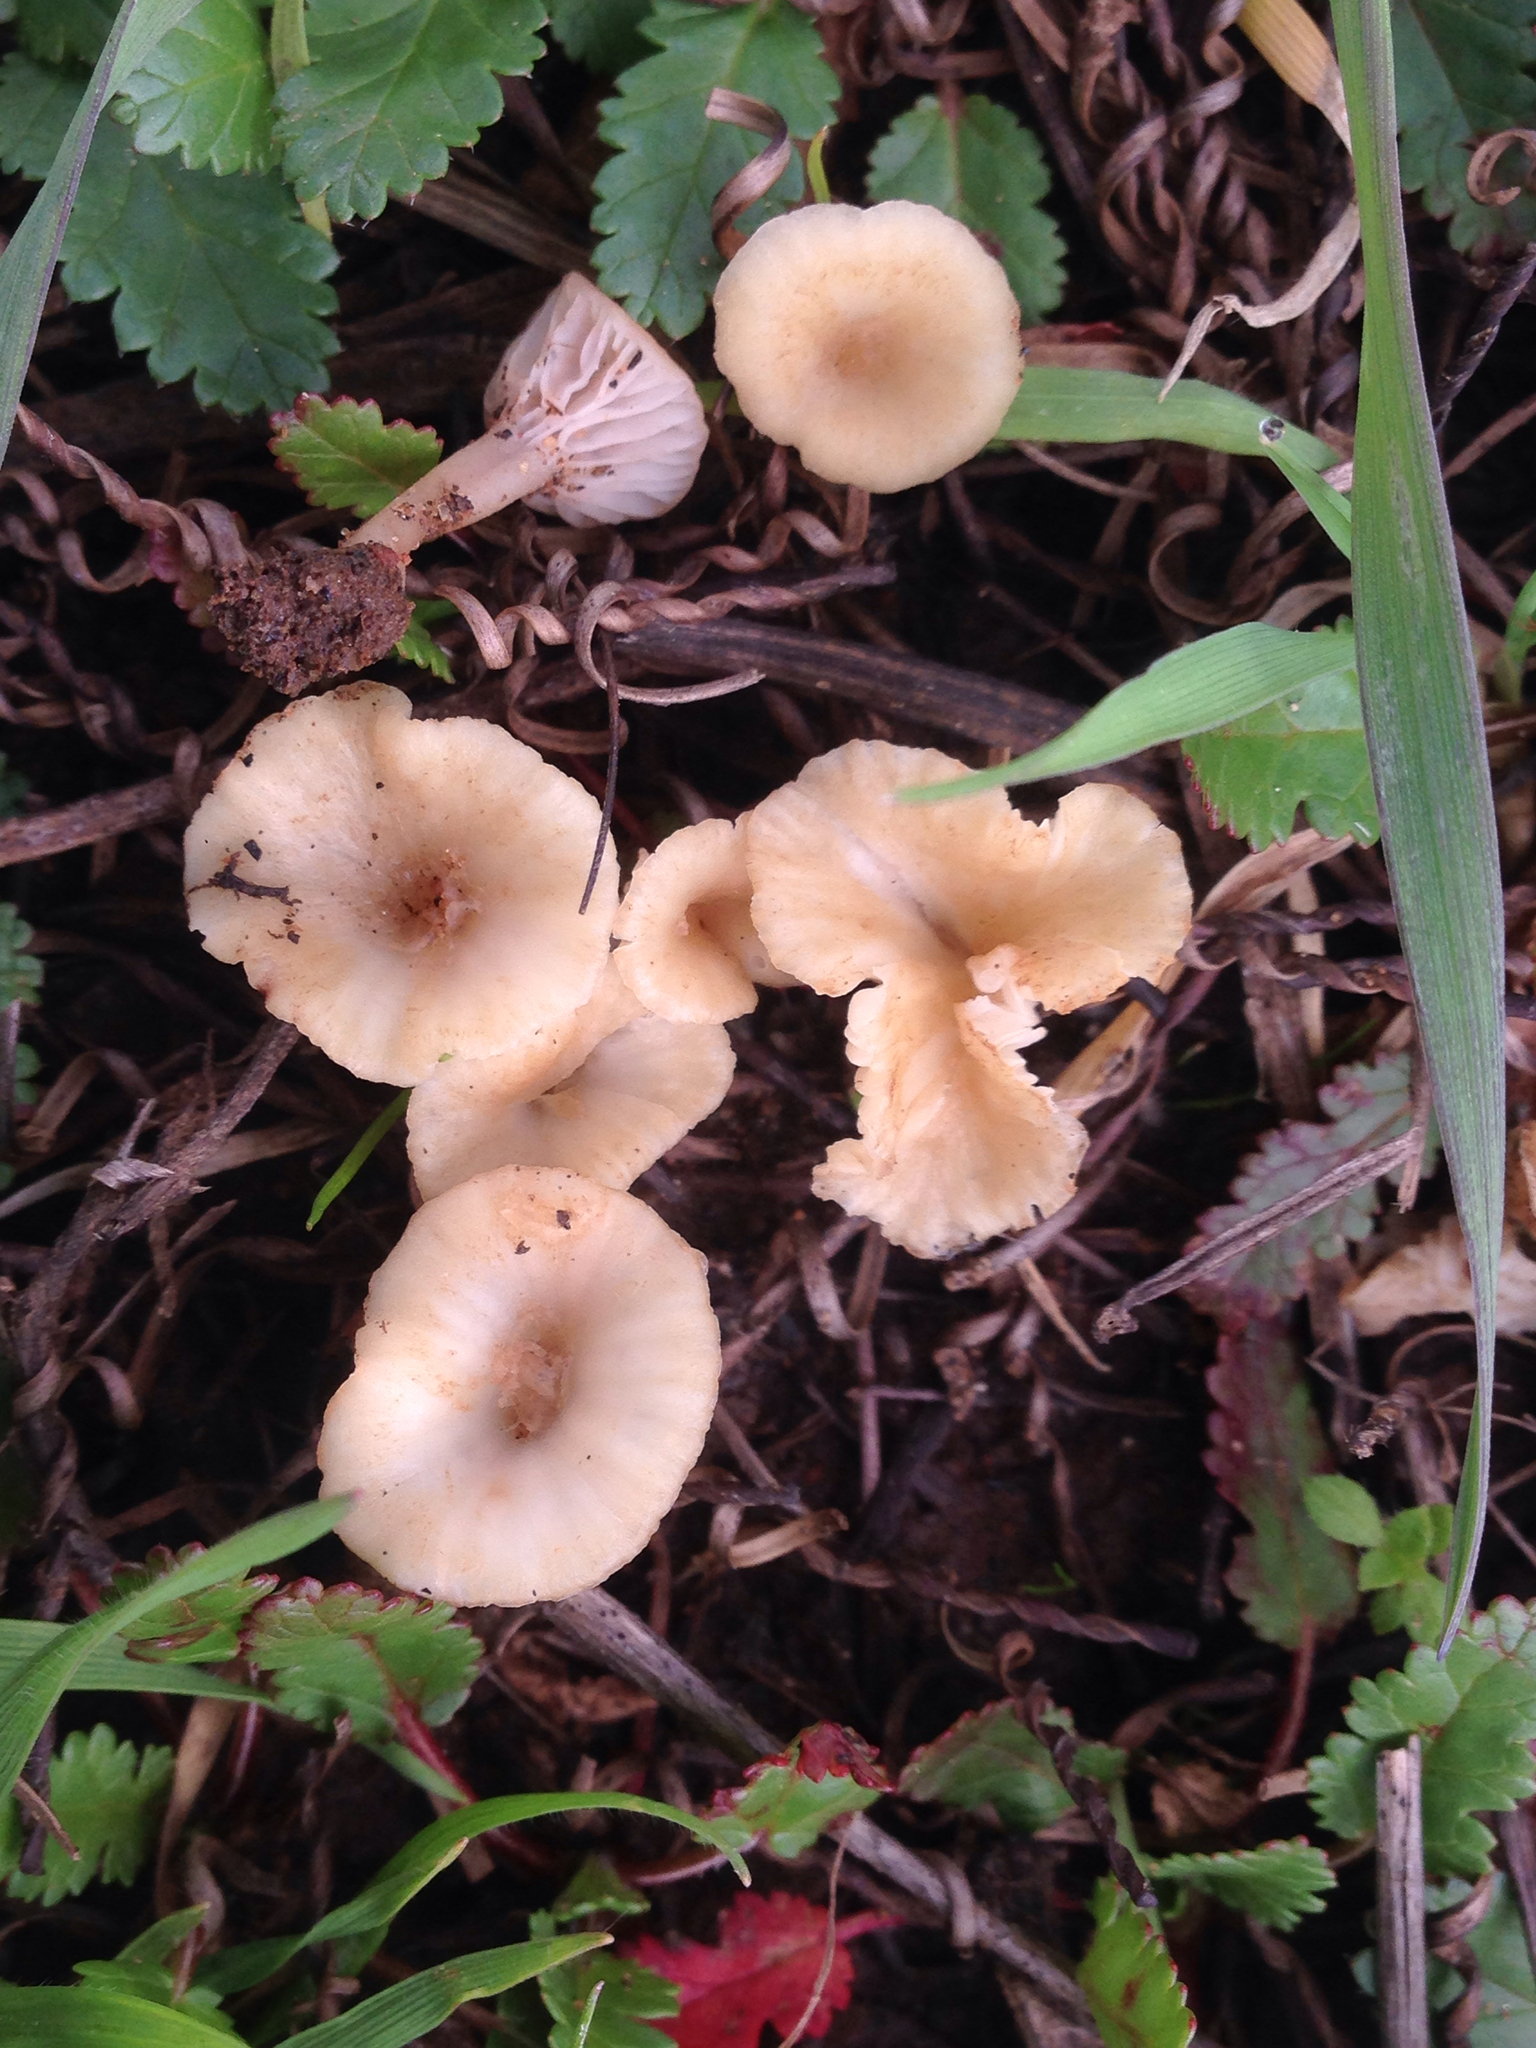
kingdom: Fungi
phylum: Basidiomycota
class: Agaricomycetes
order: Hymenochaetales
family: Rickenellaceae
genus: Contumyces
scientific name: Contumyces rosellus
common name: Rosy navel
